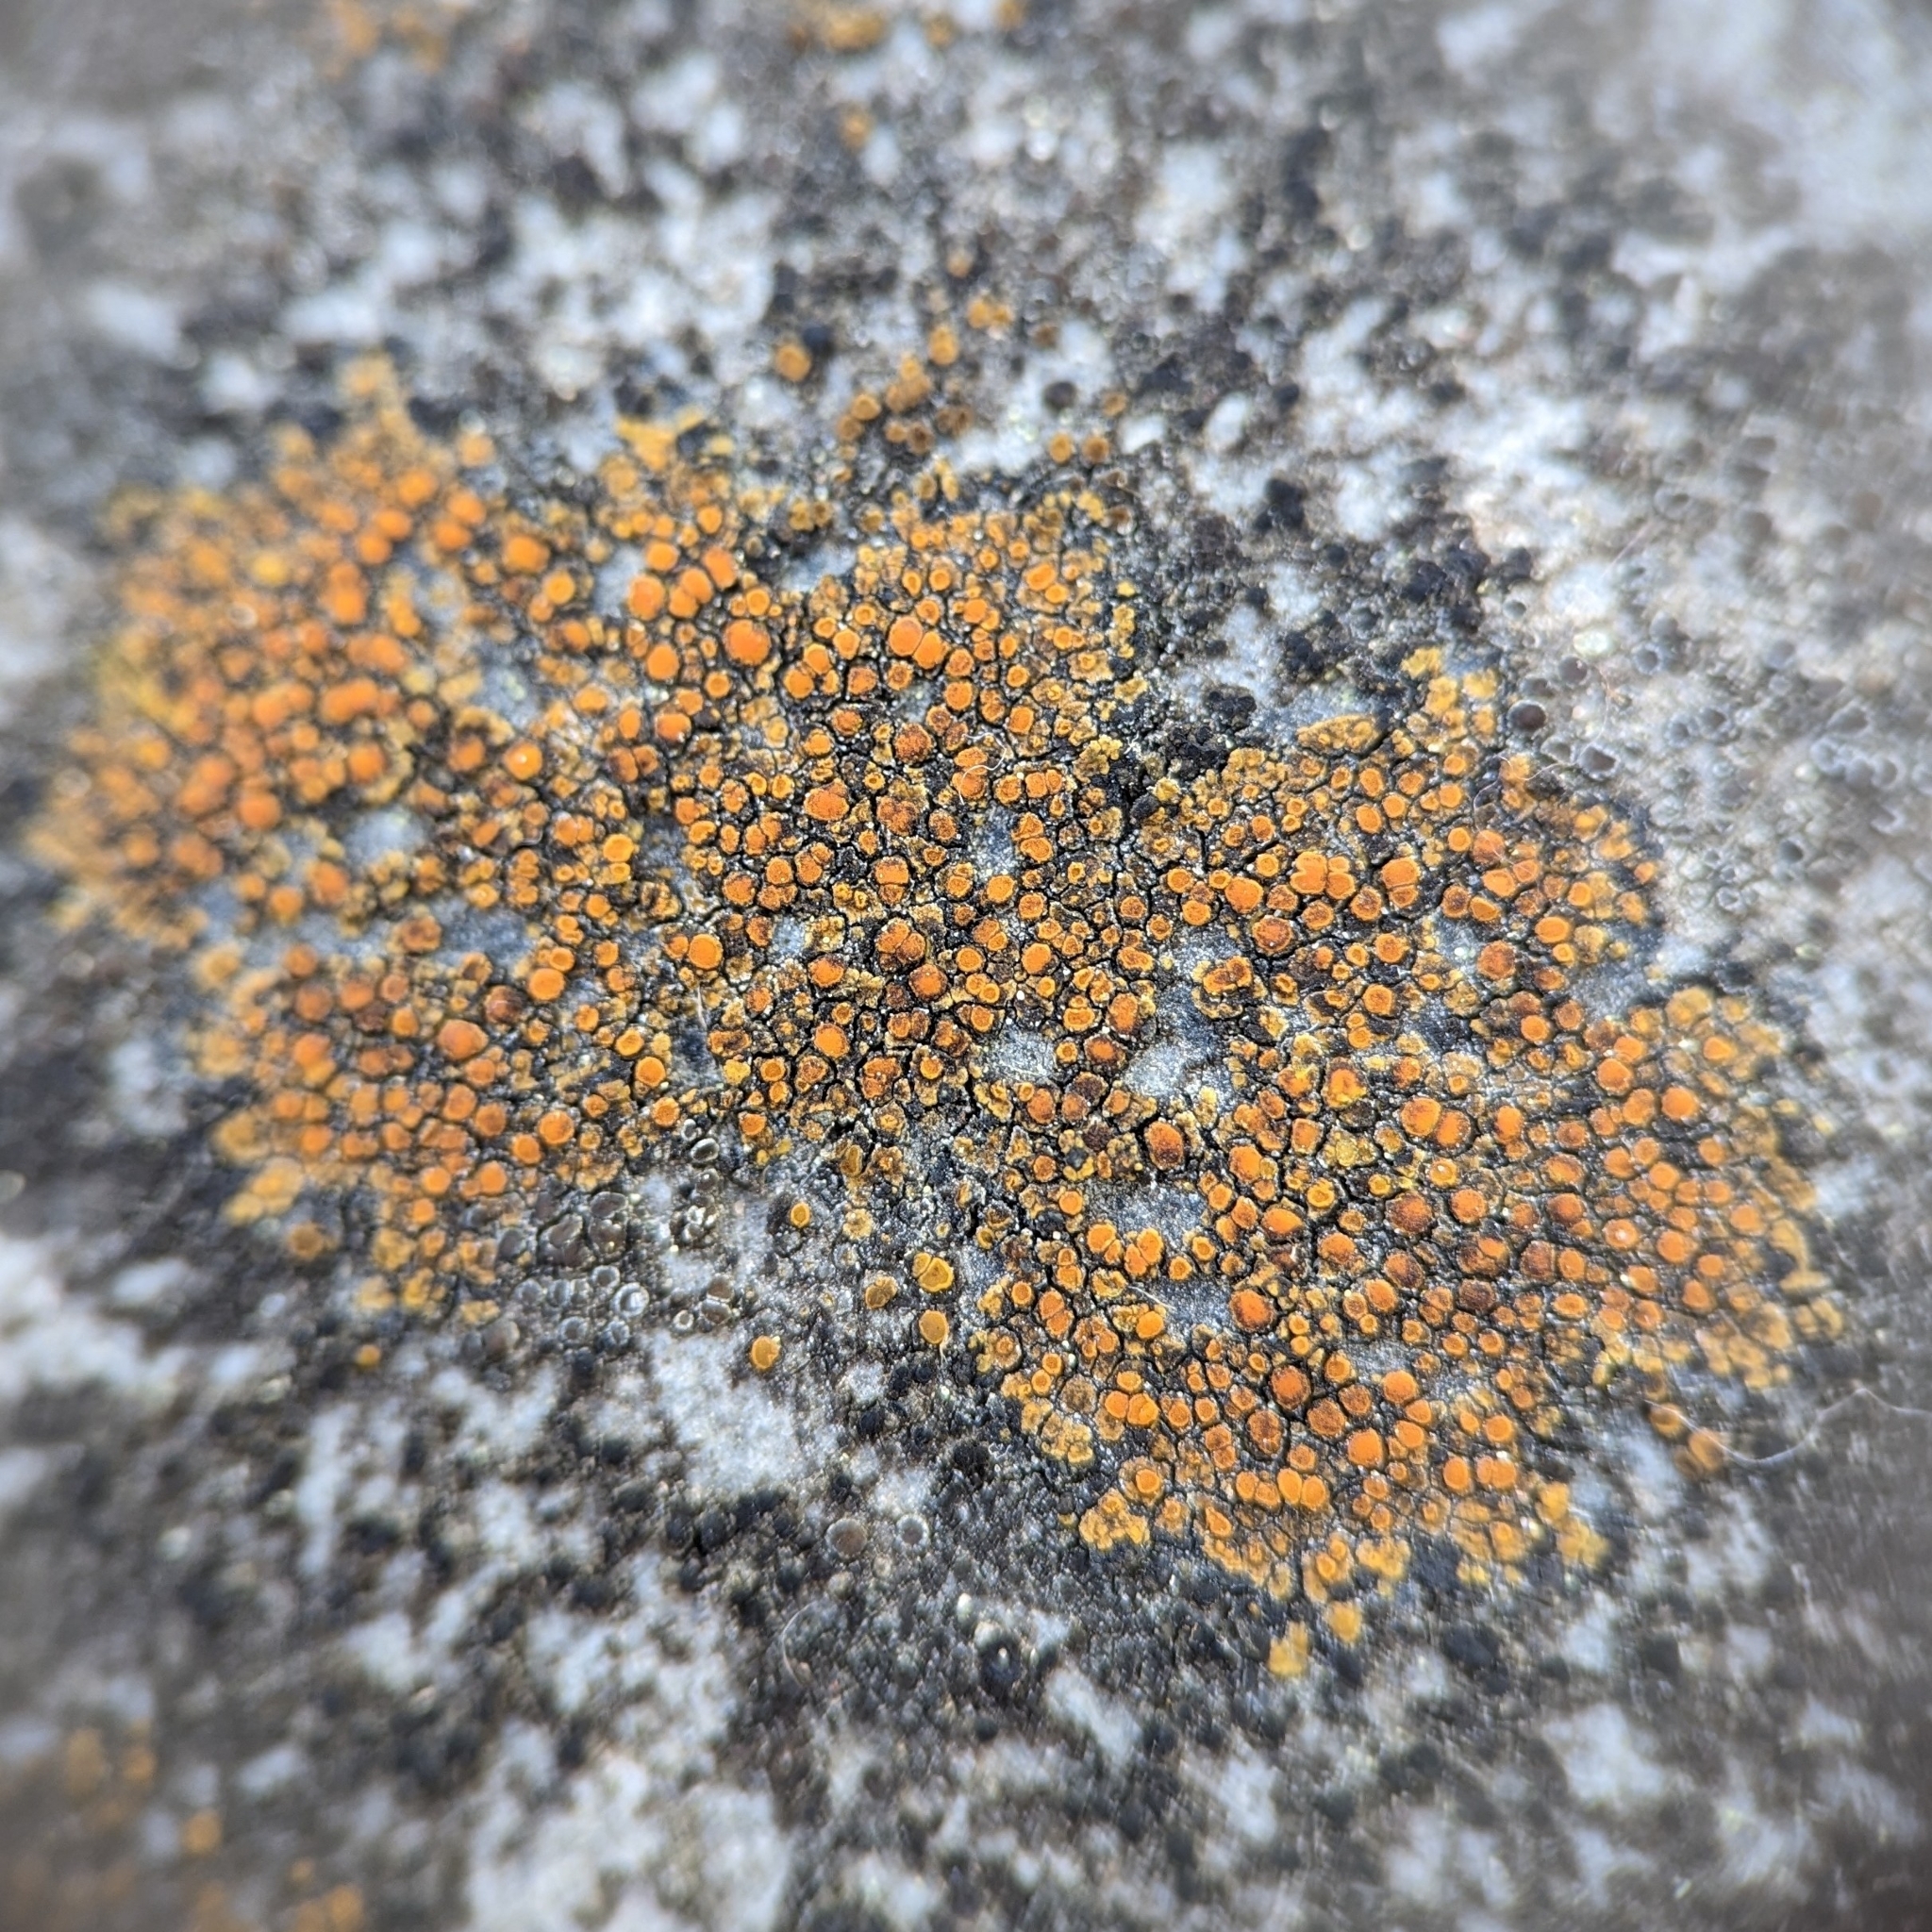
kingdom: Fungi
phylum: Ascomycota
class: Lecanoromycetes
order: Teloschistales
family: Teloschistaceae
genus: Xanthocarpia
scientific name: Xanthocarpia feracissima
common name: Sidewalk firedot
